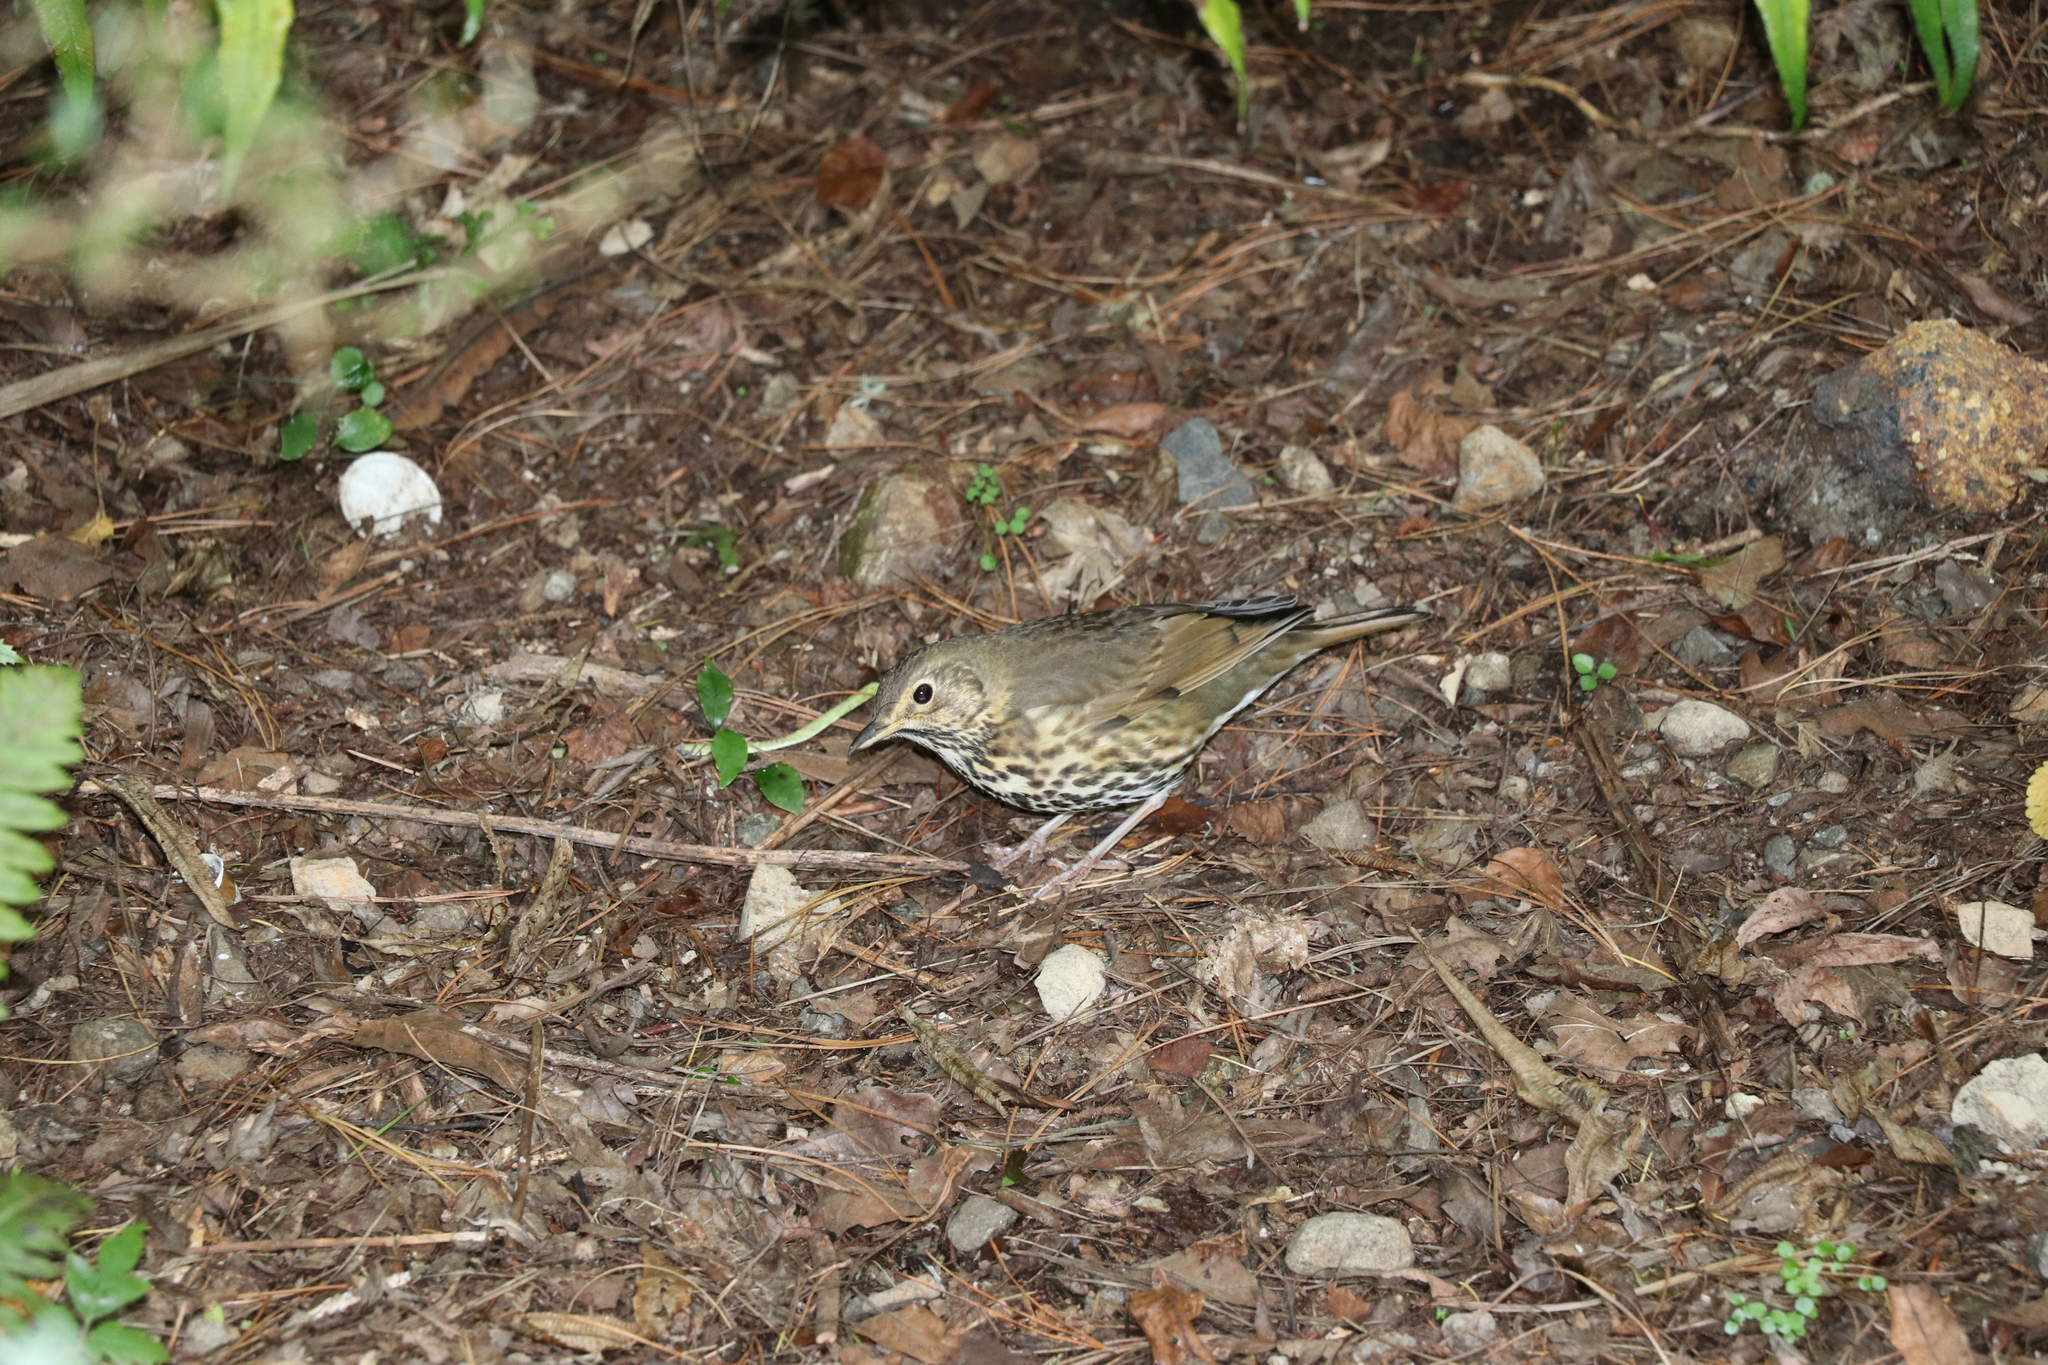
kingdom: Animalia
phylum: Chordata
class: Aves
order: Passeriformes
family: Turdidae
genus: Turdus
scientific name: Turdus philomelos
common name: Song thrush
